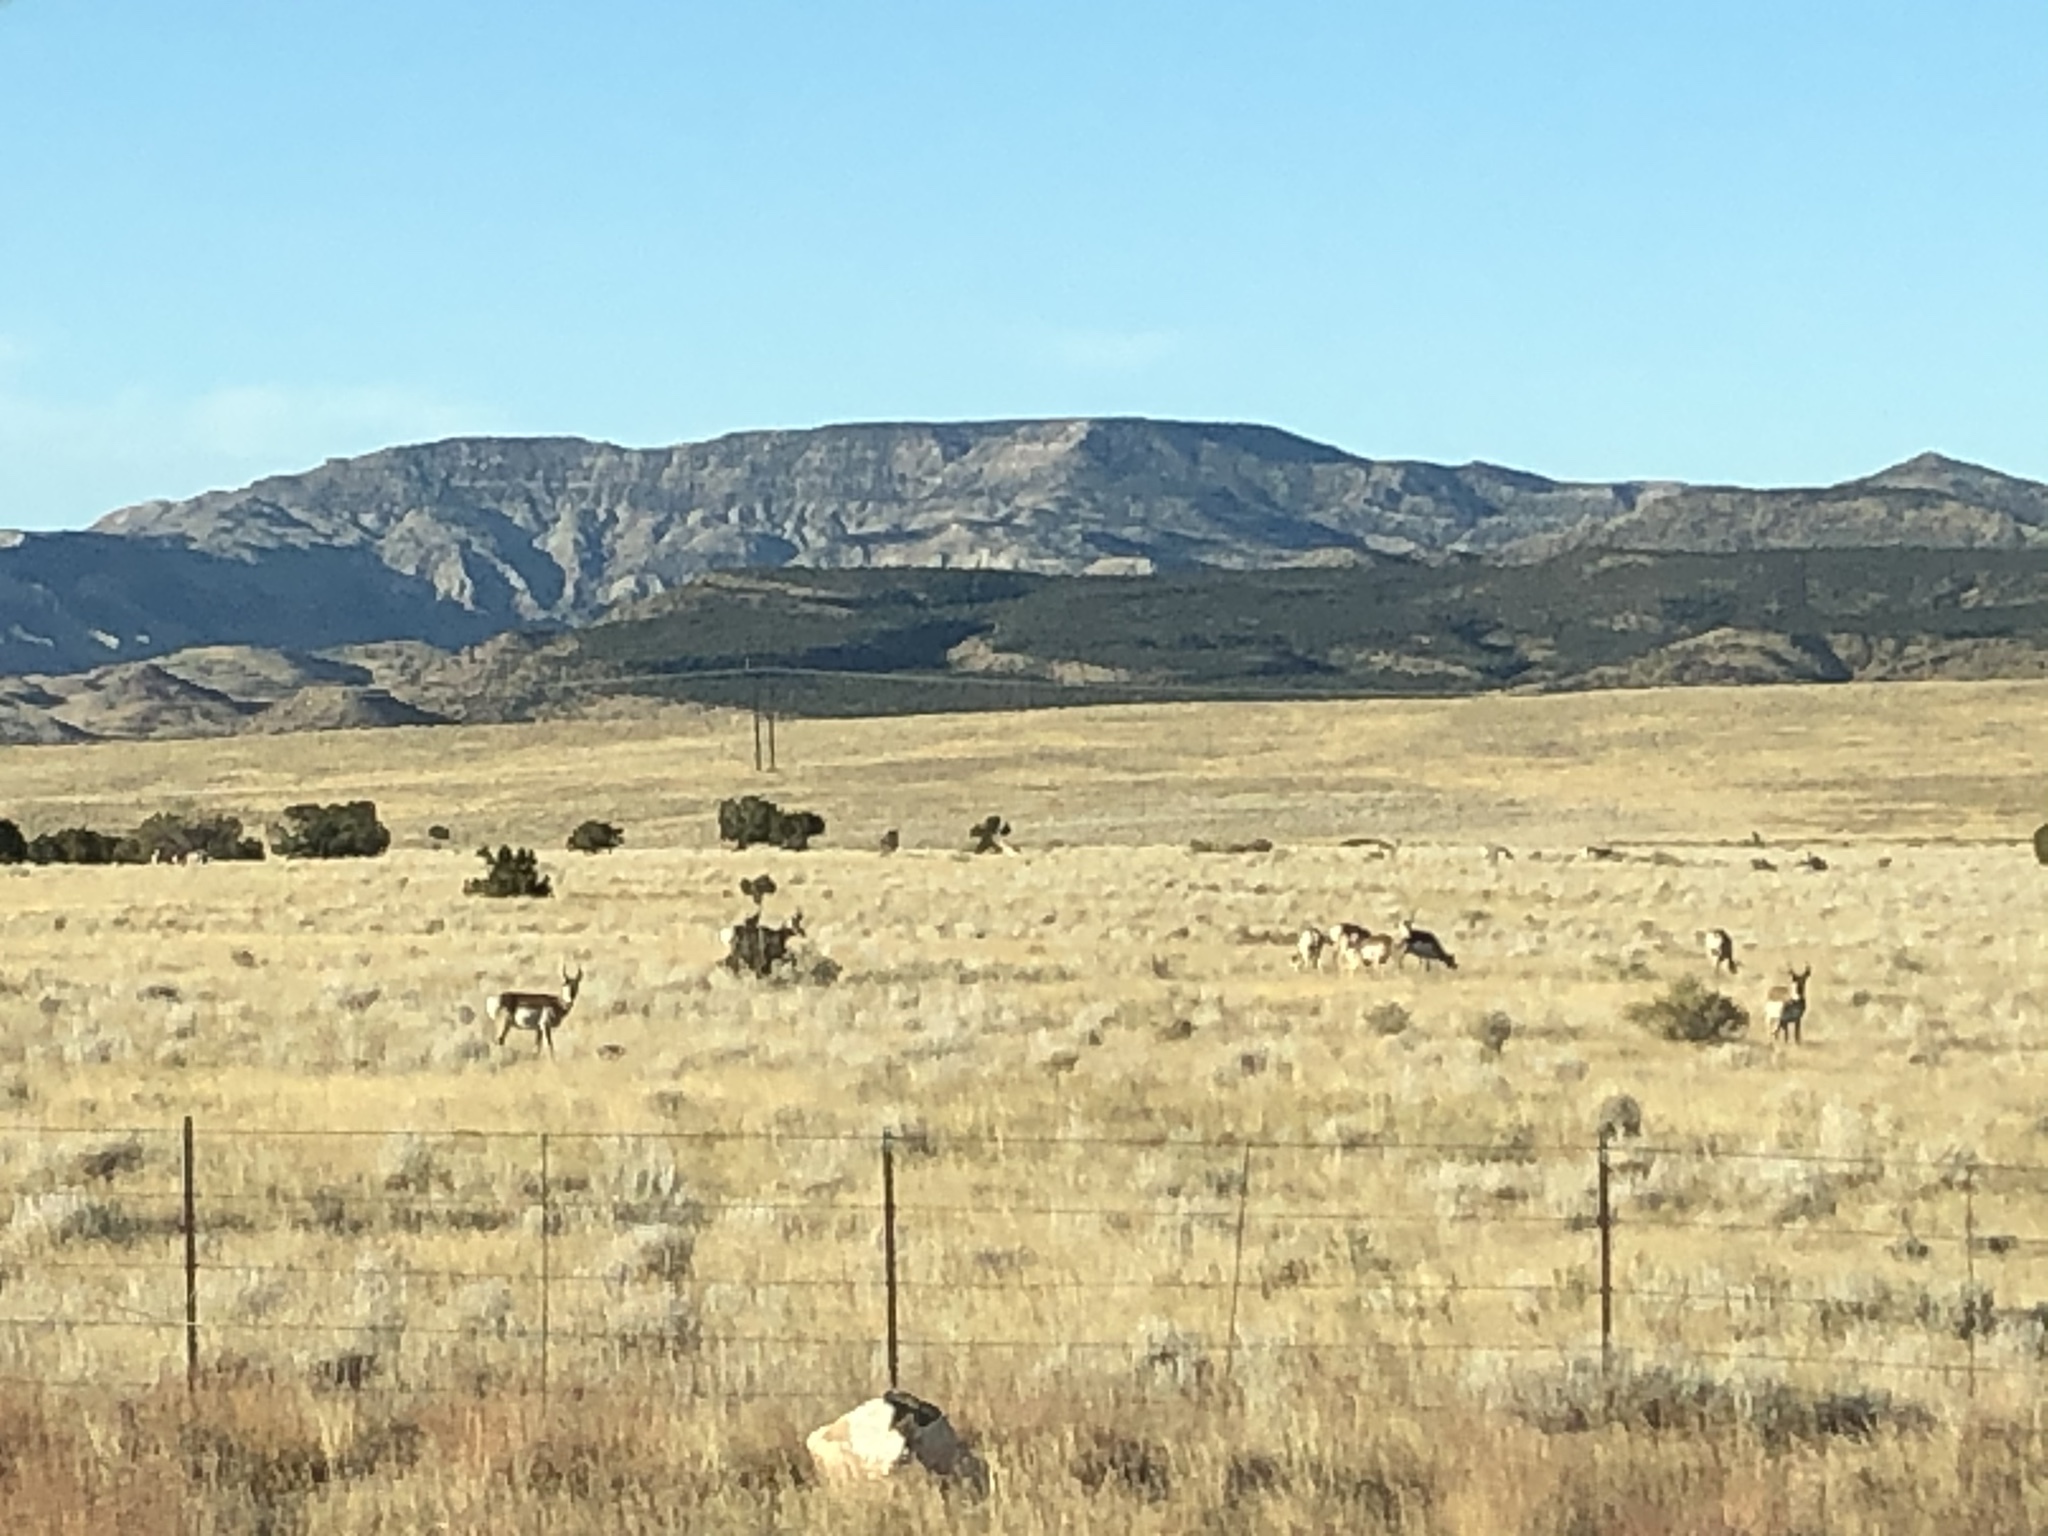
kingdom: Animalia
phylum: Chordata
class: Mammalia
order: Artiodactyla
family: Antilocapridae
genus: Antilocapra
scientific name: Antilocapra americana
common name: Pronghorn
